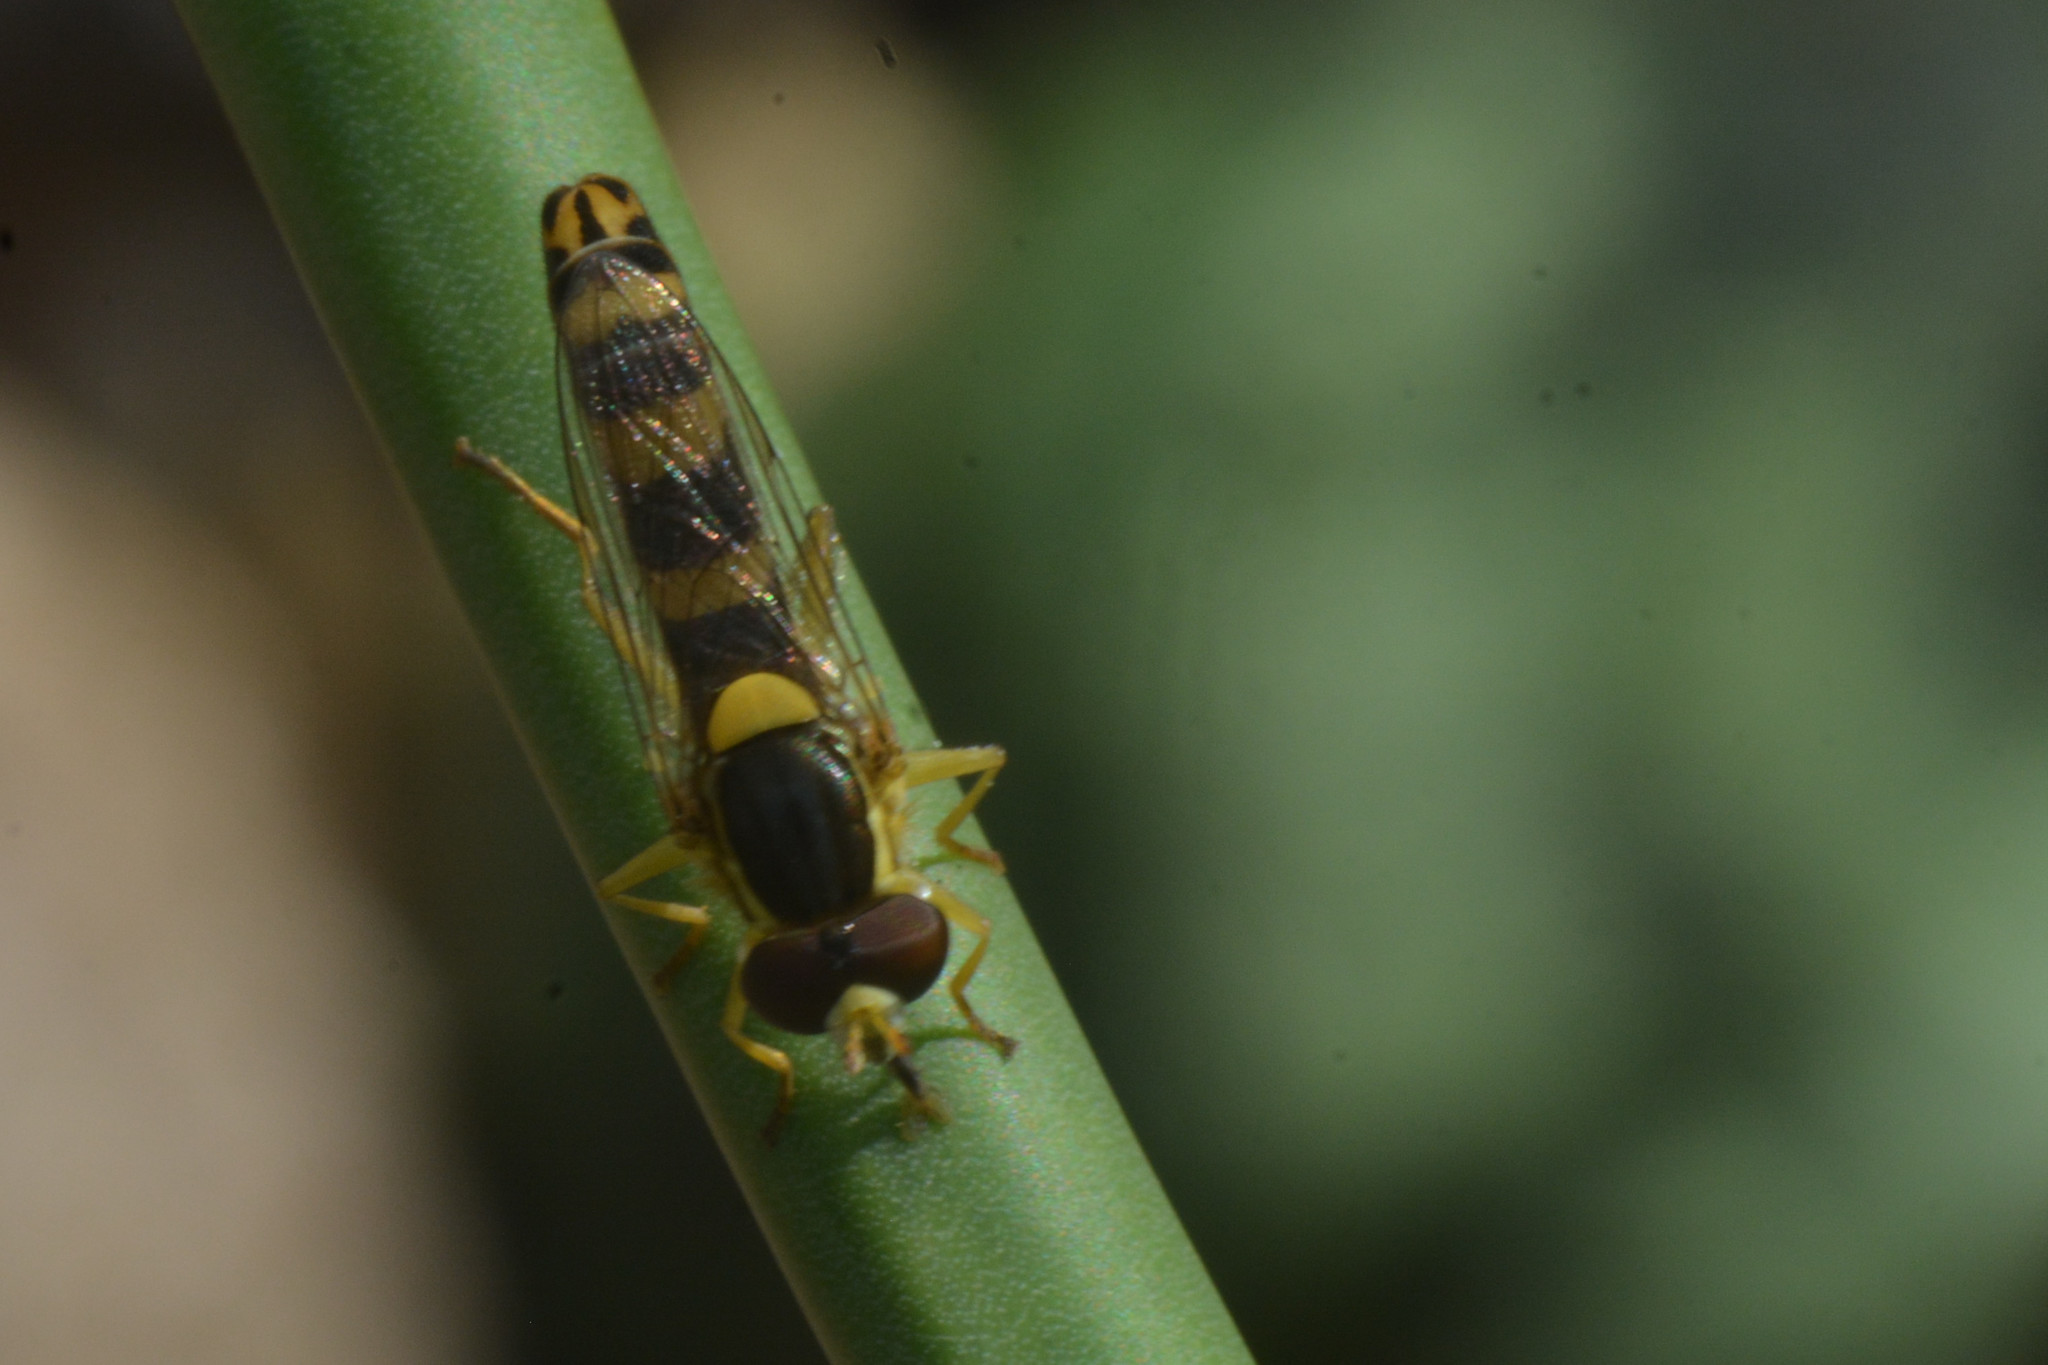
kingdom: Animalia
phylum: Arthropoda
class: Insecta
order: Diptera
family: Syrphidae
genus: Sphaerophoria
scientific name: Sphaerophoria scripta
